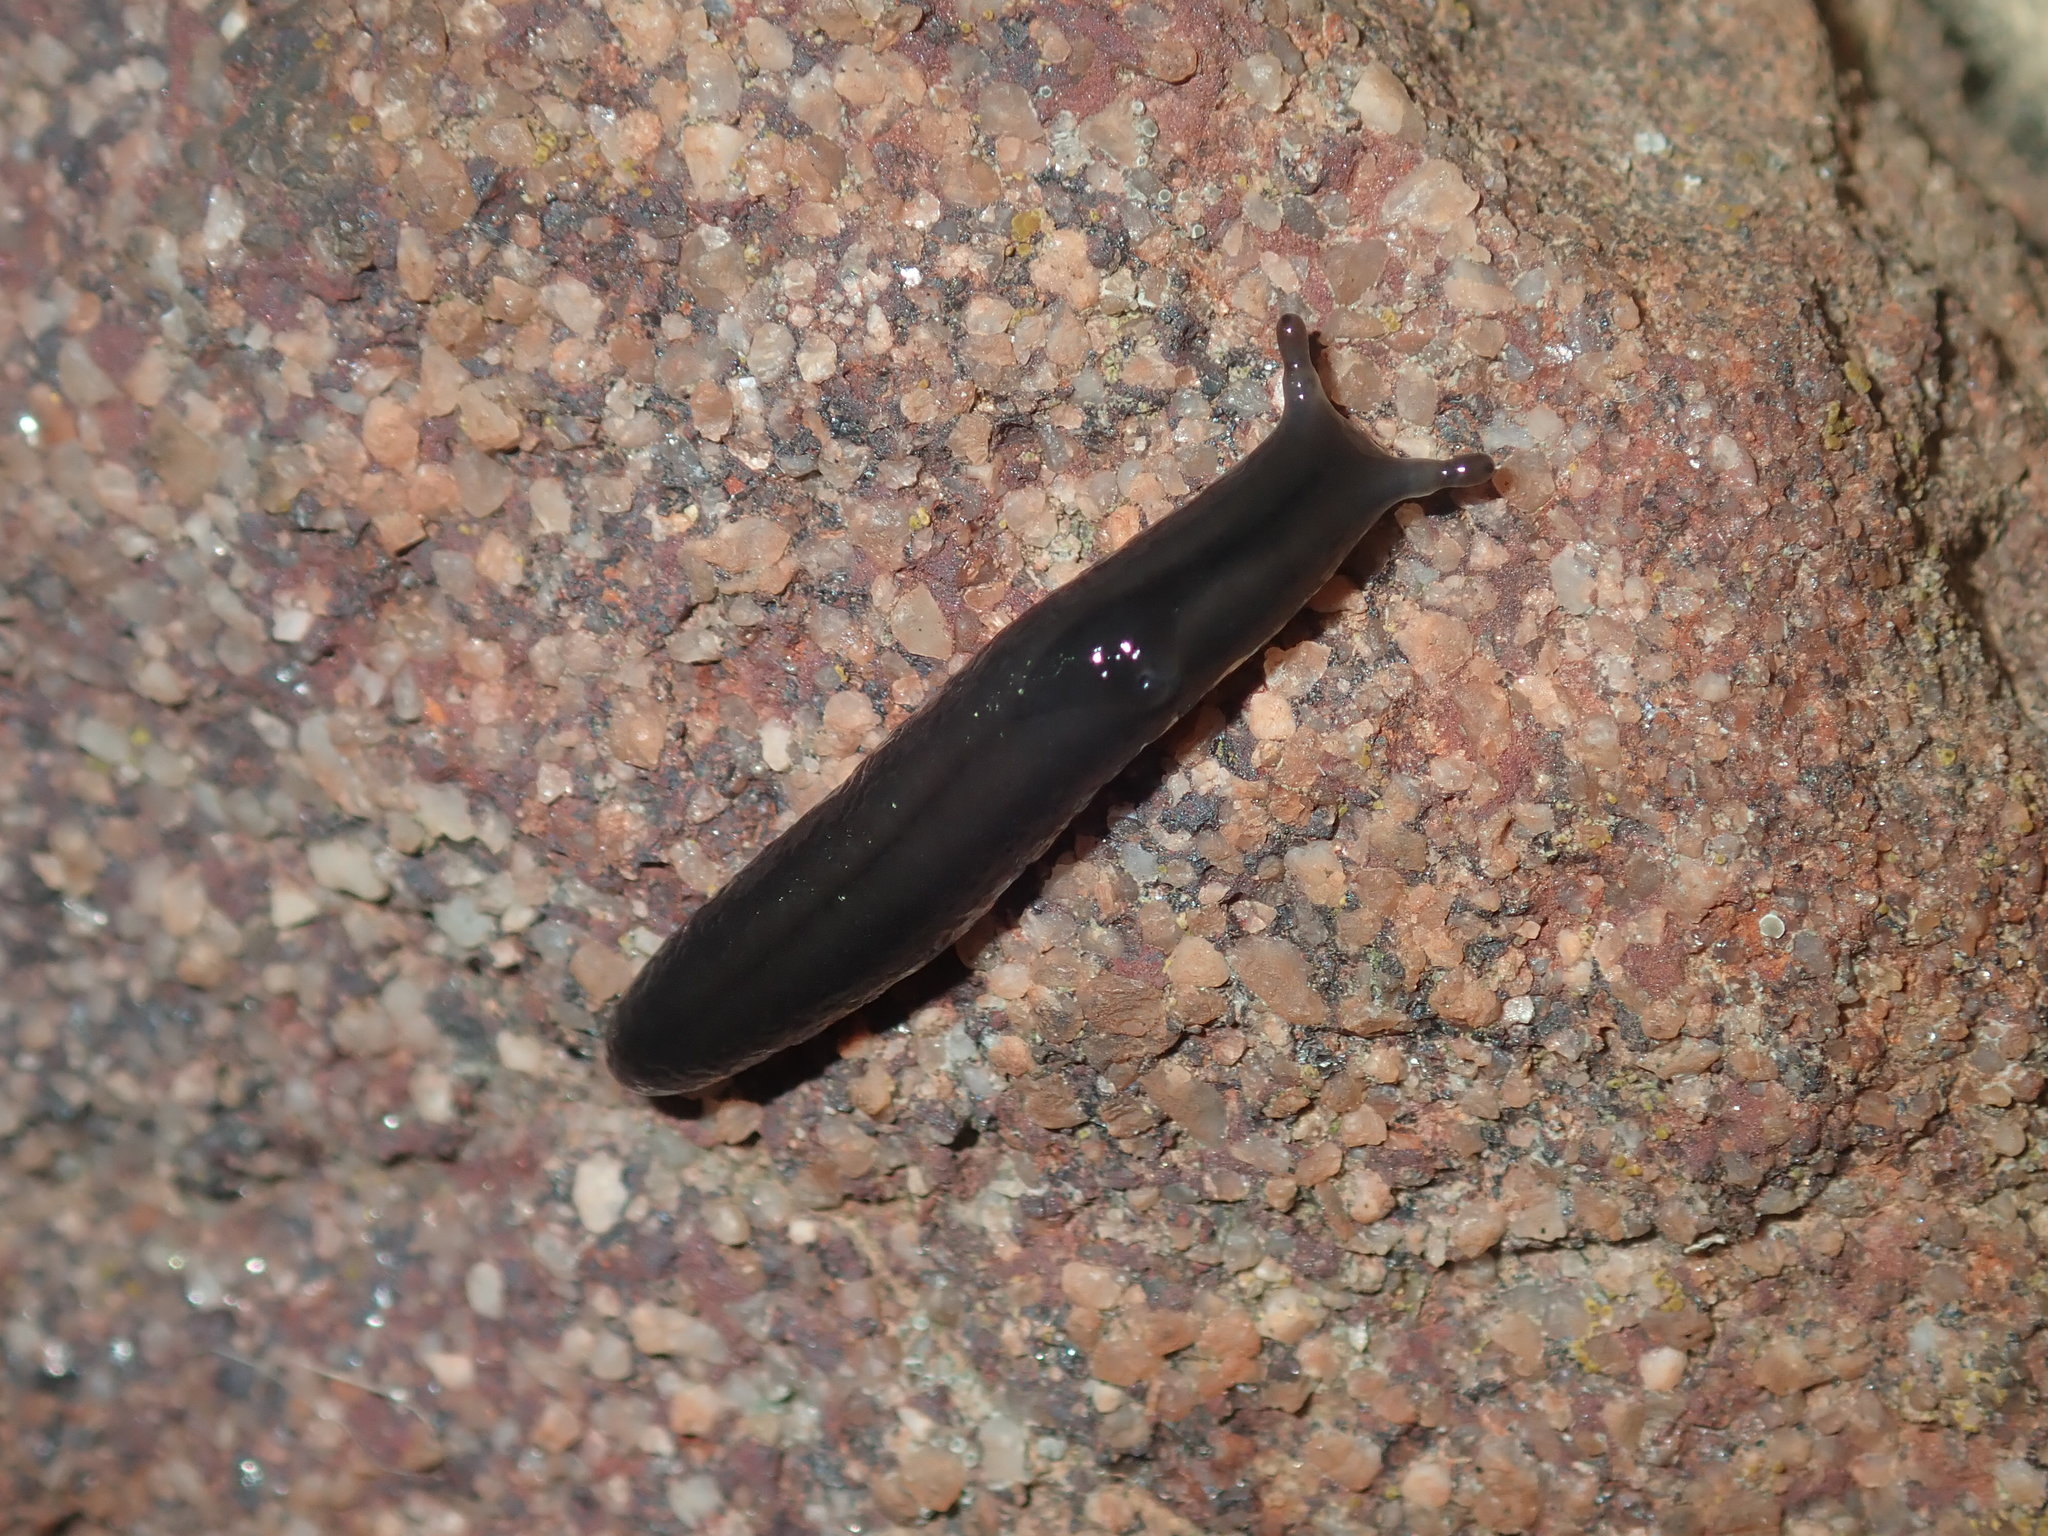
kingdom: Animalia
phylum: Mollusca
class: Gastropoda
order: Stylommatophora
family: Athoracophoridae
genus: Triboniophorus
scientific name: Triboniophorus graeffei
